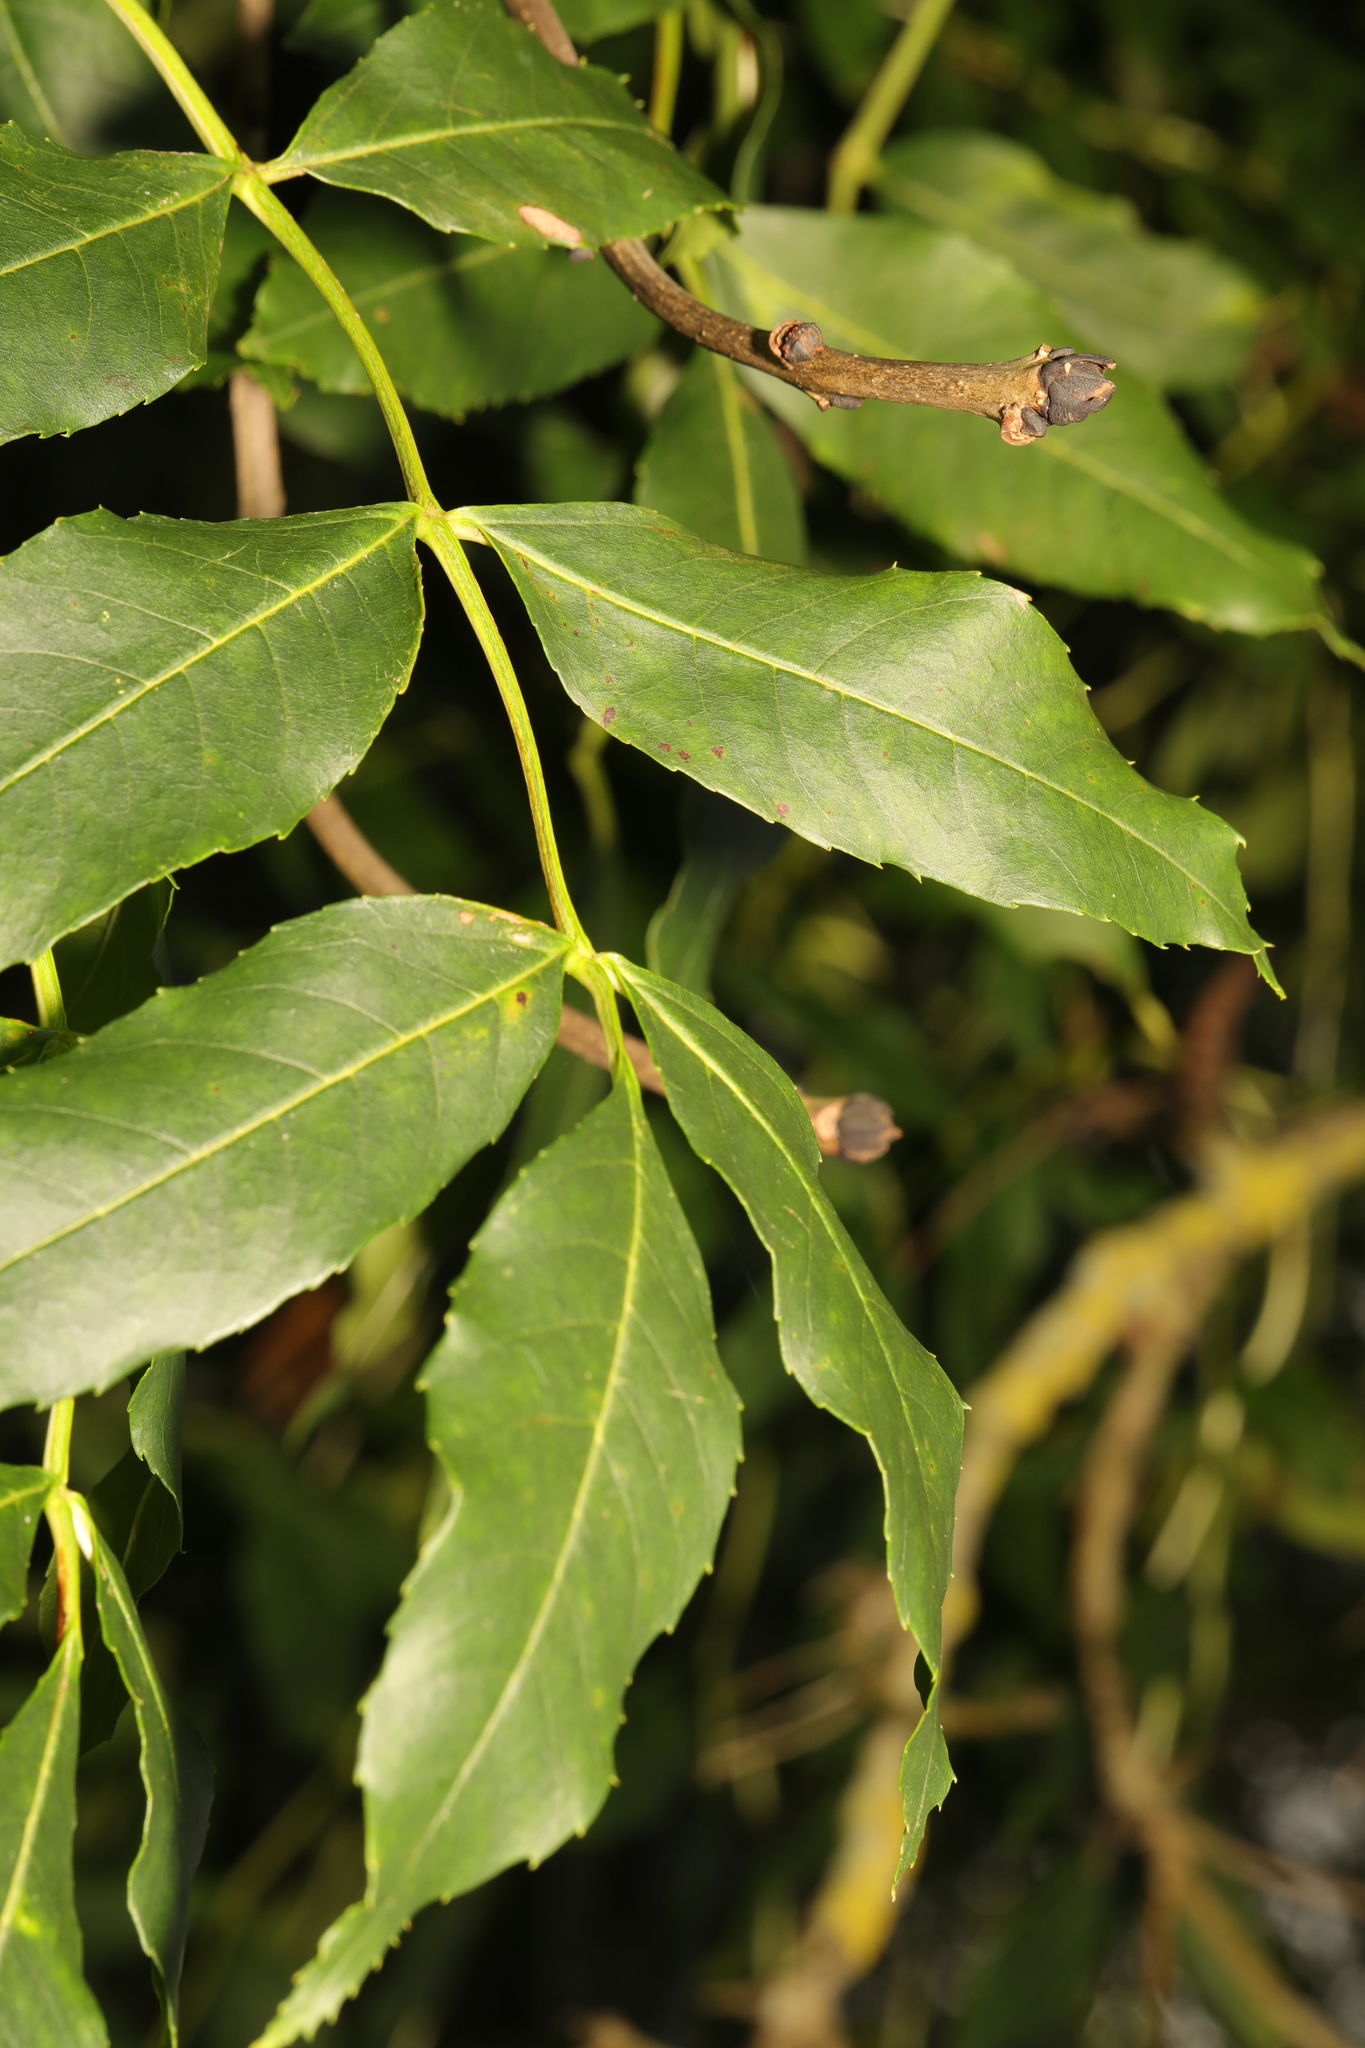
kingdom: Plantae
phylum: Tracheophyta
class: Magnoliopsida
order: Lamiales
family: Oleaceae
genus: Fraxinus
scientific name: Fraxinus excelsior
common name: European ash
